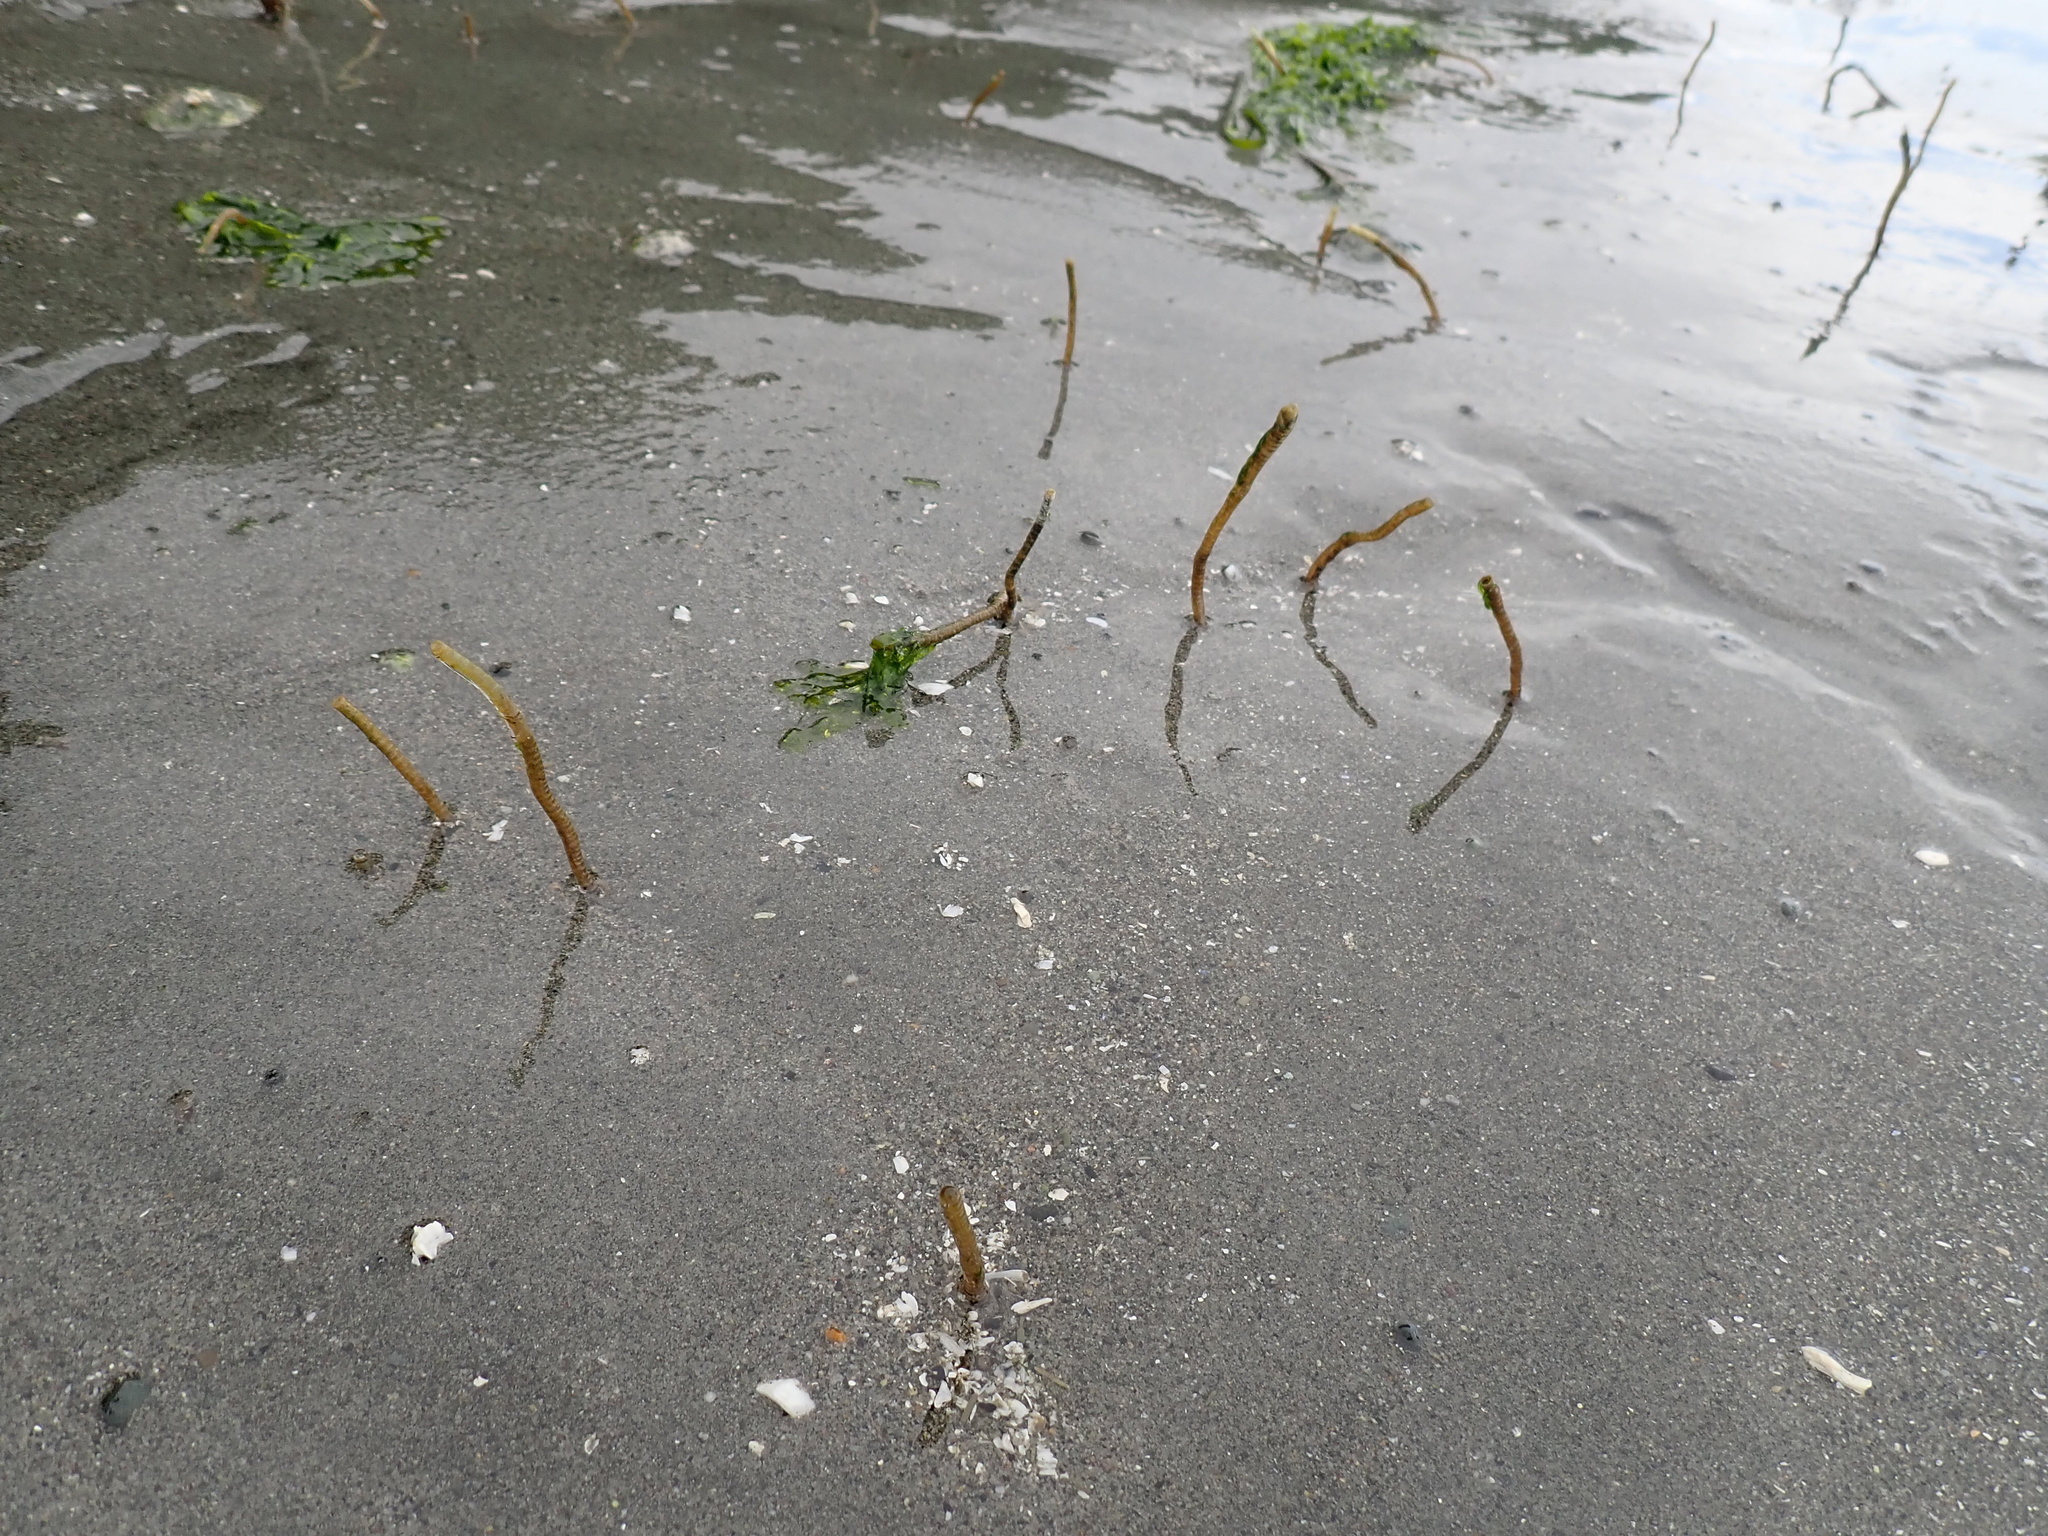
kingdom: Animalia
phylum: Annelida
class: Polychaeta
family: Chaetopteridae
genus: Spiochaetopterus
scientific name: Spiochaetopterus costarum
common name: Glassy tubeworm
